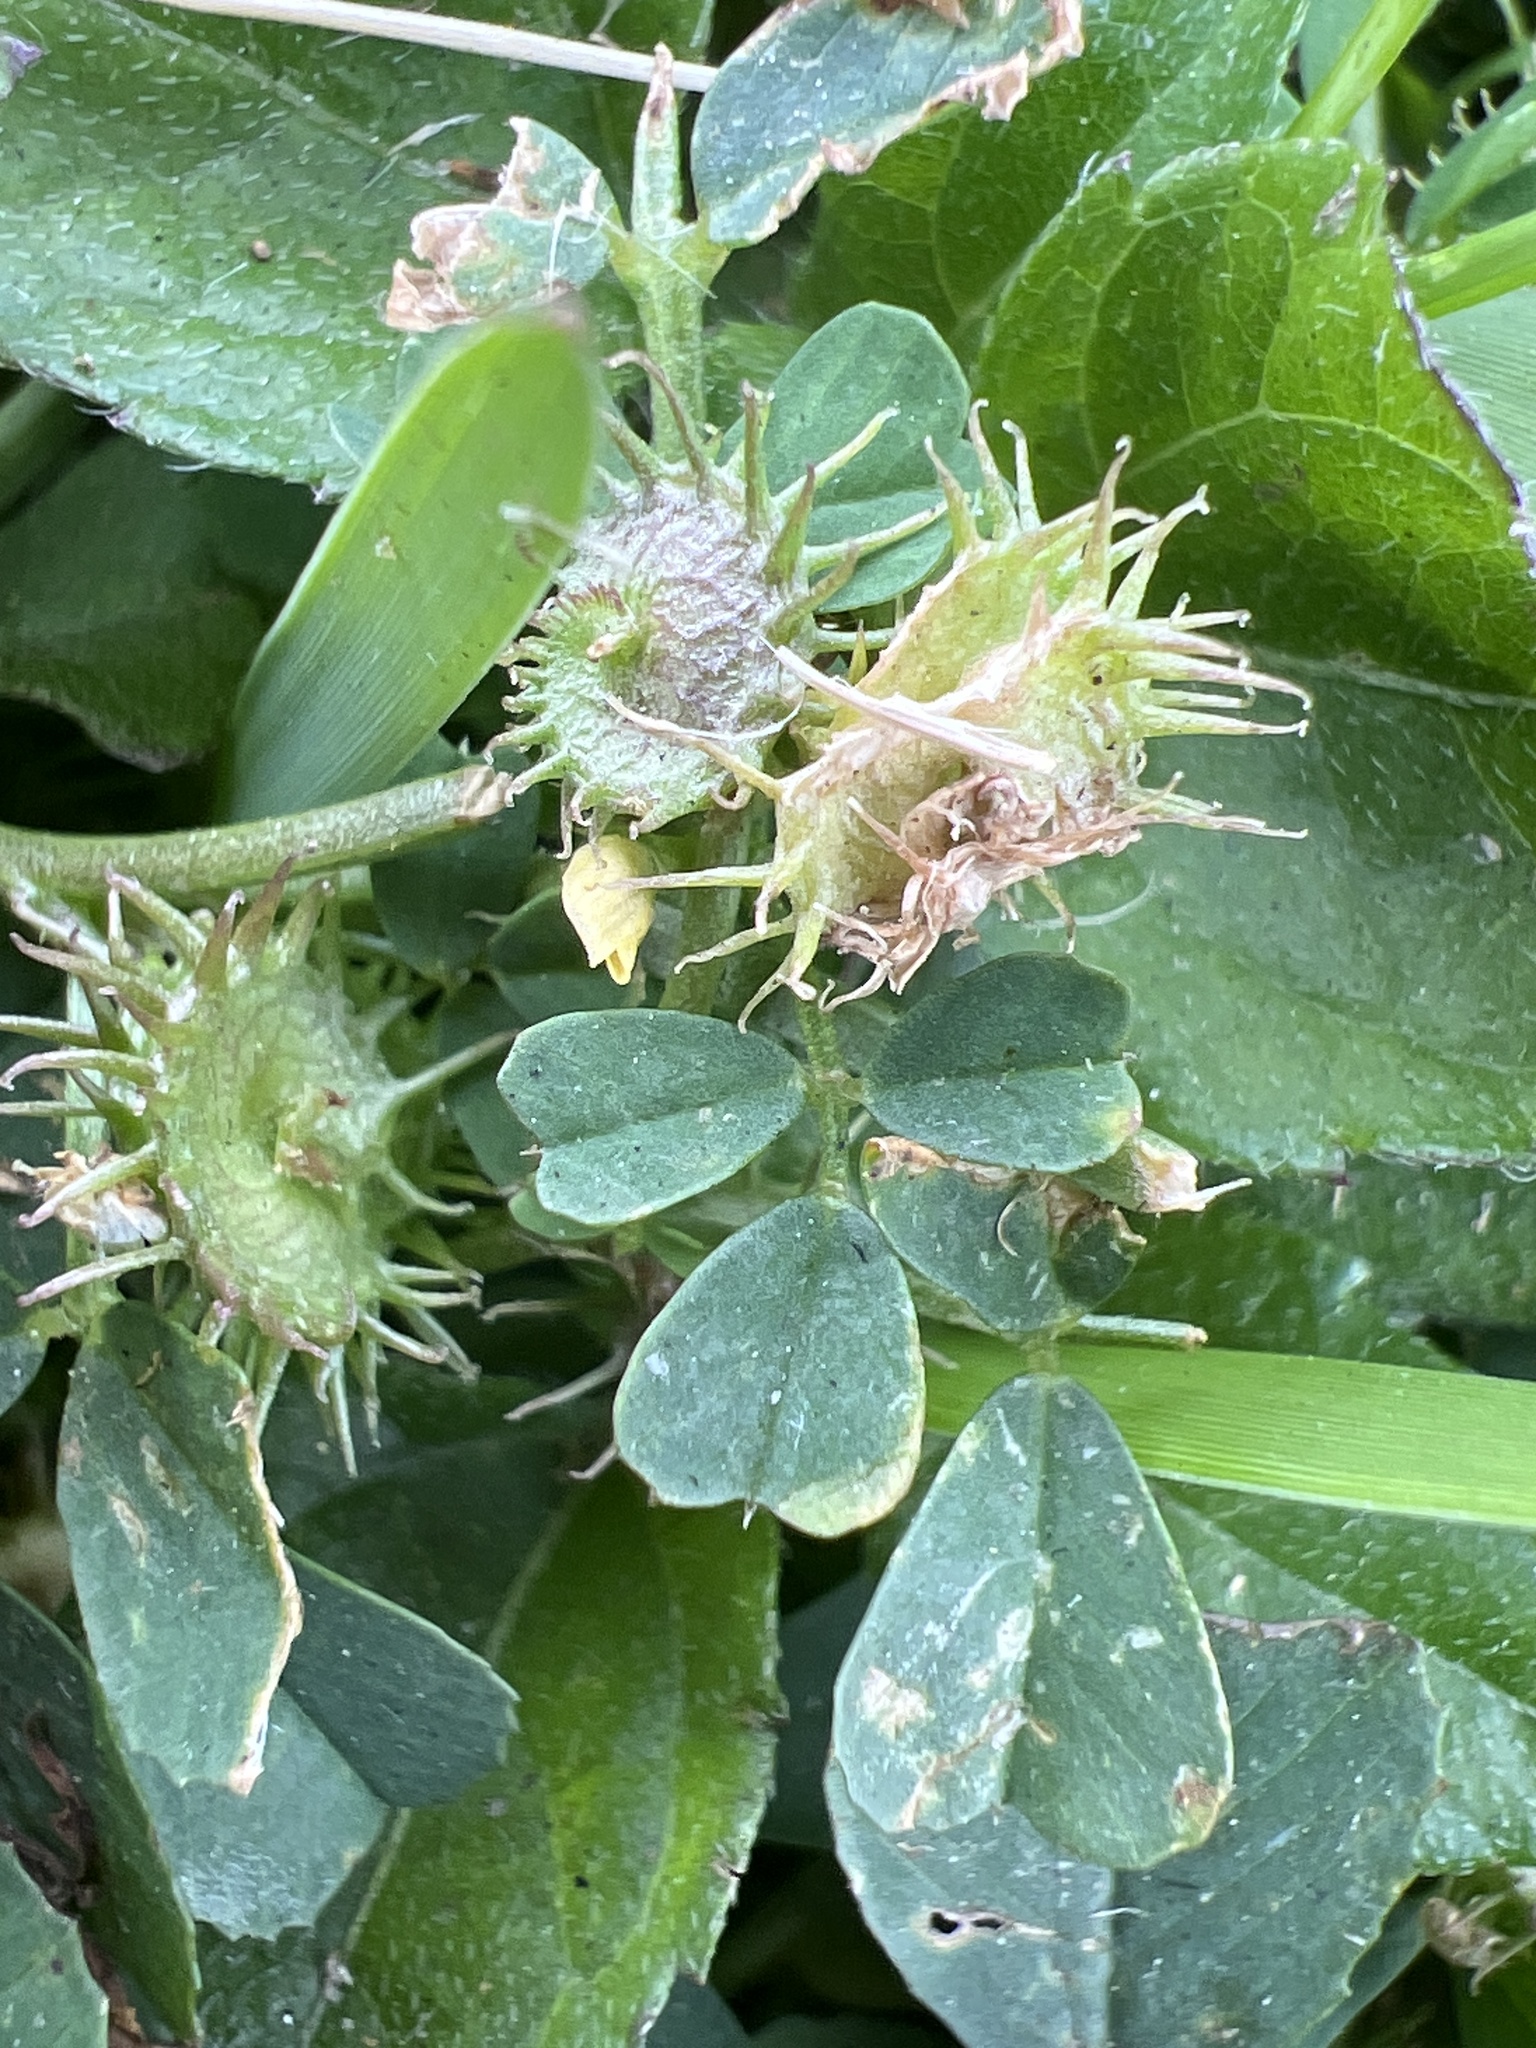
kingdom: Plantae
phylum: Tracheophyta
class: Magnoliopsida
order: Fabales
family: Fabaceae
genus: Medicago
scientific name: Medicago polymorpha
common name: Burclover
